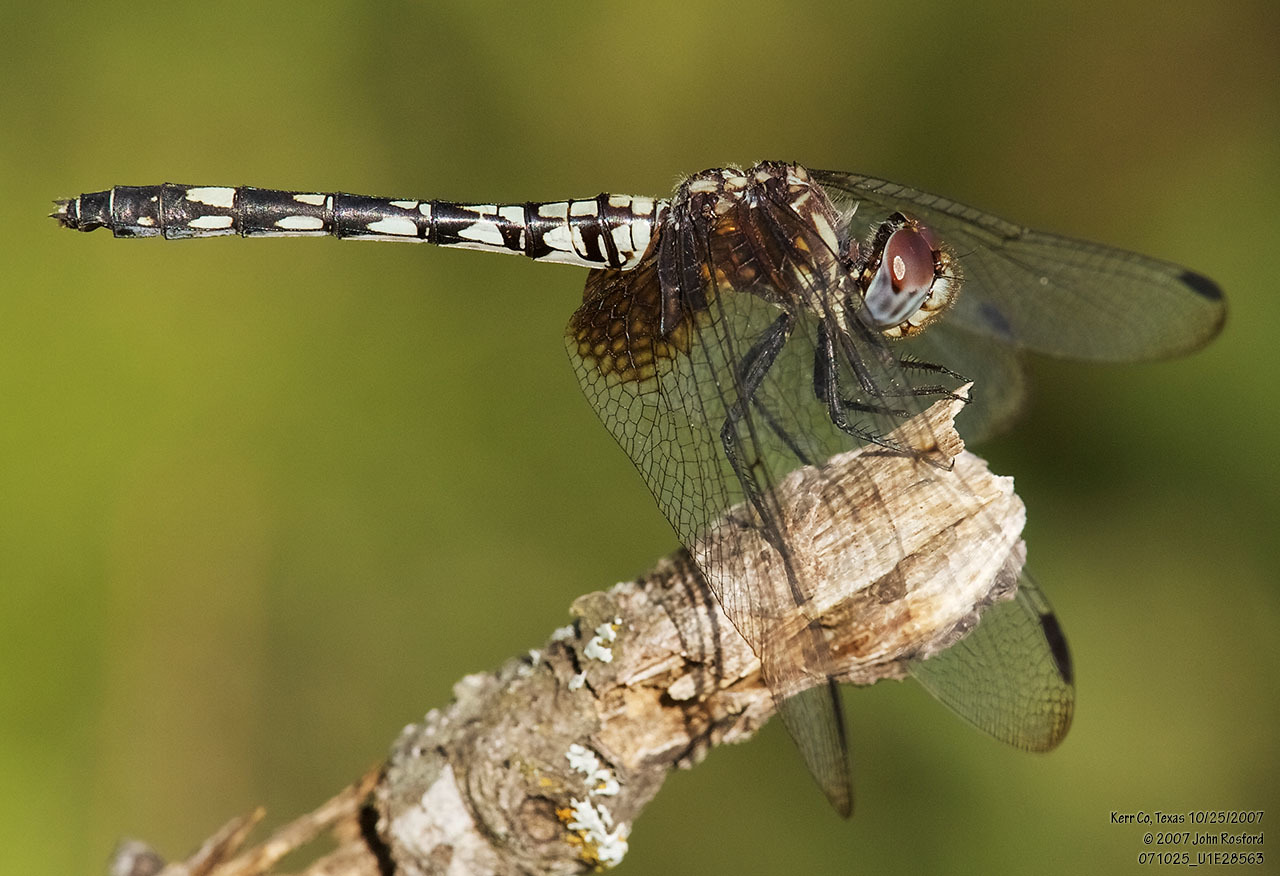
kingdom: Animalia
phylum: Arthropoda
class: Insecta
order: Odonata
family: Libellulidae
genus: Dythemis
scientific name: Dythemis fugax
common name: Checkered setwing
